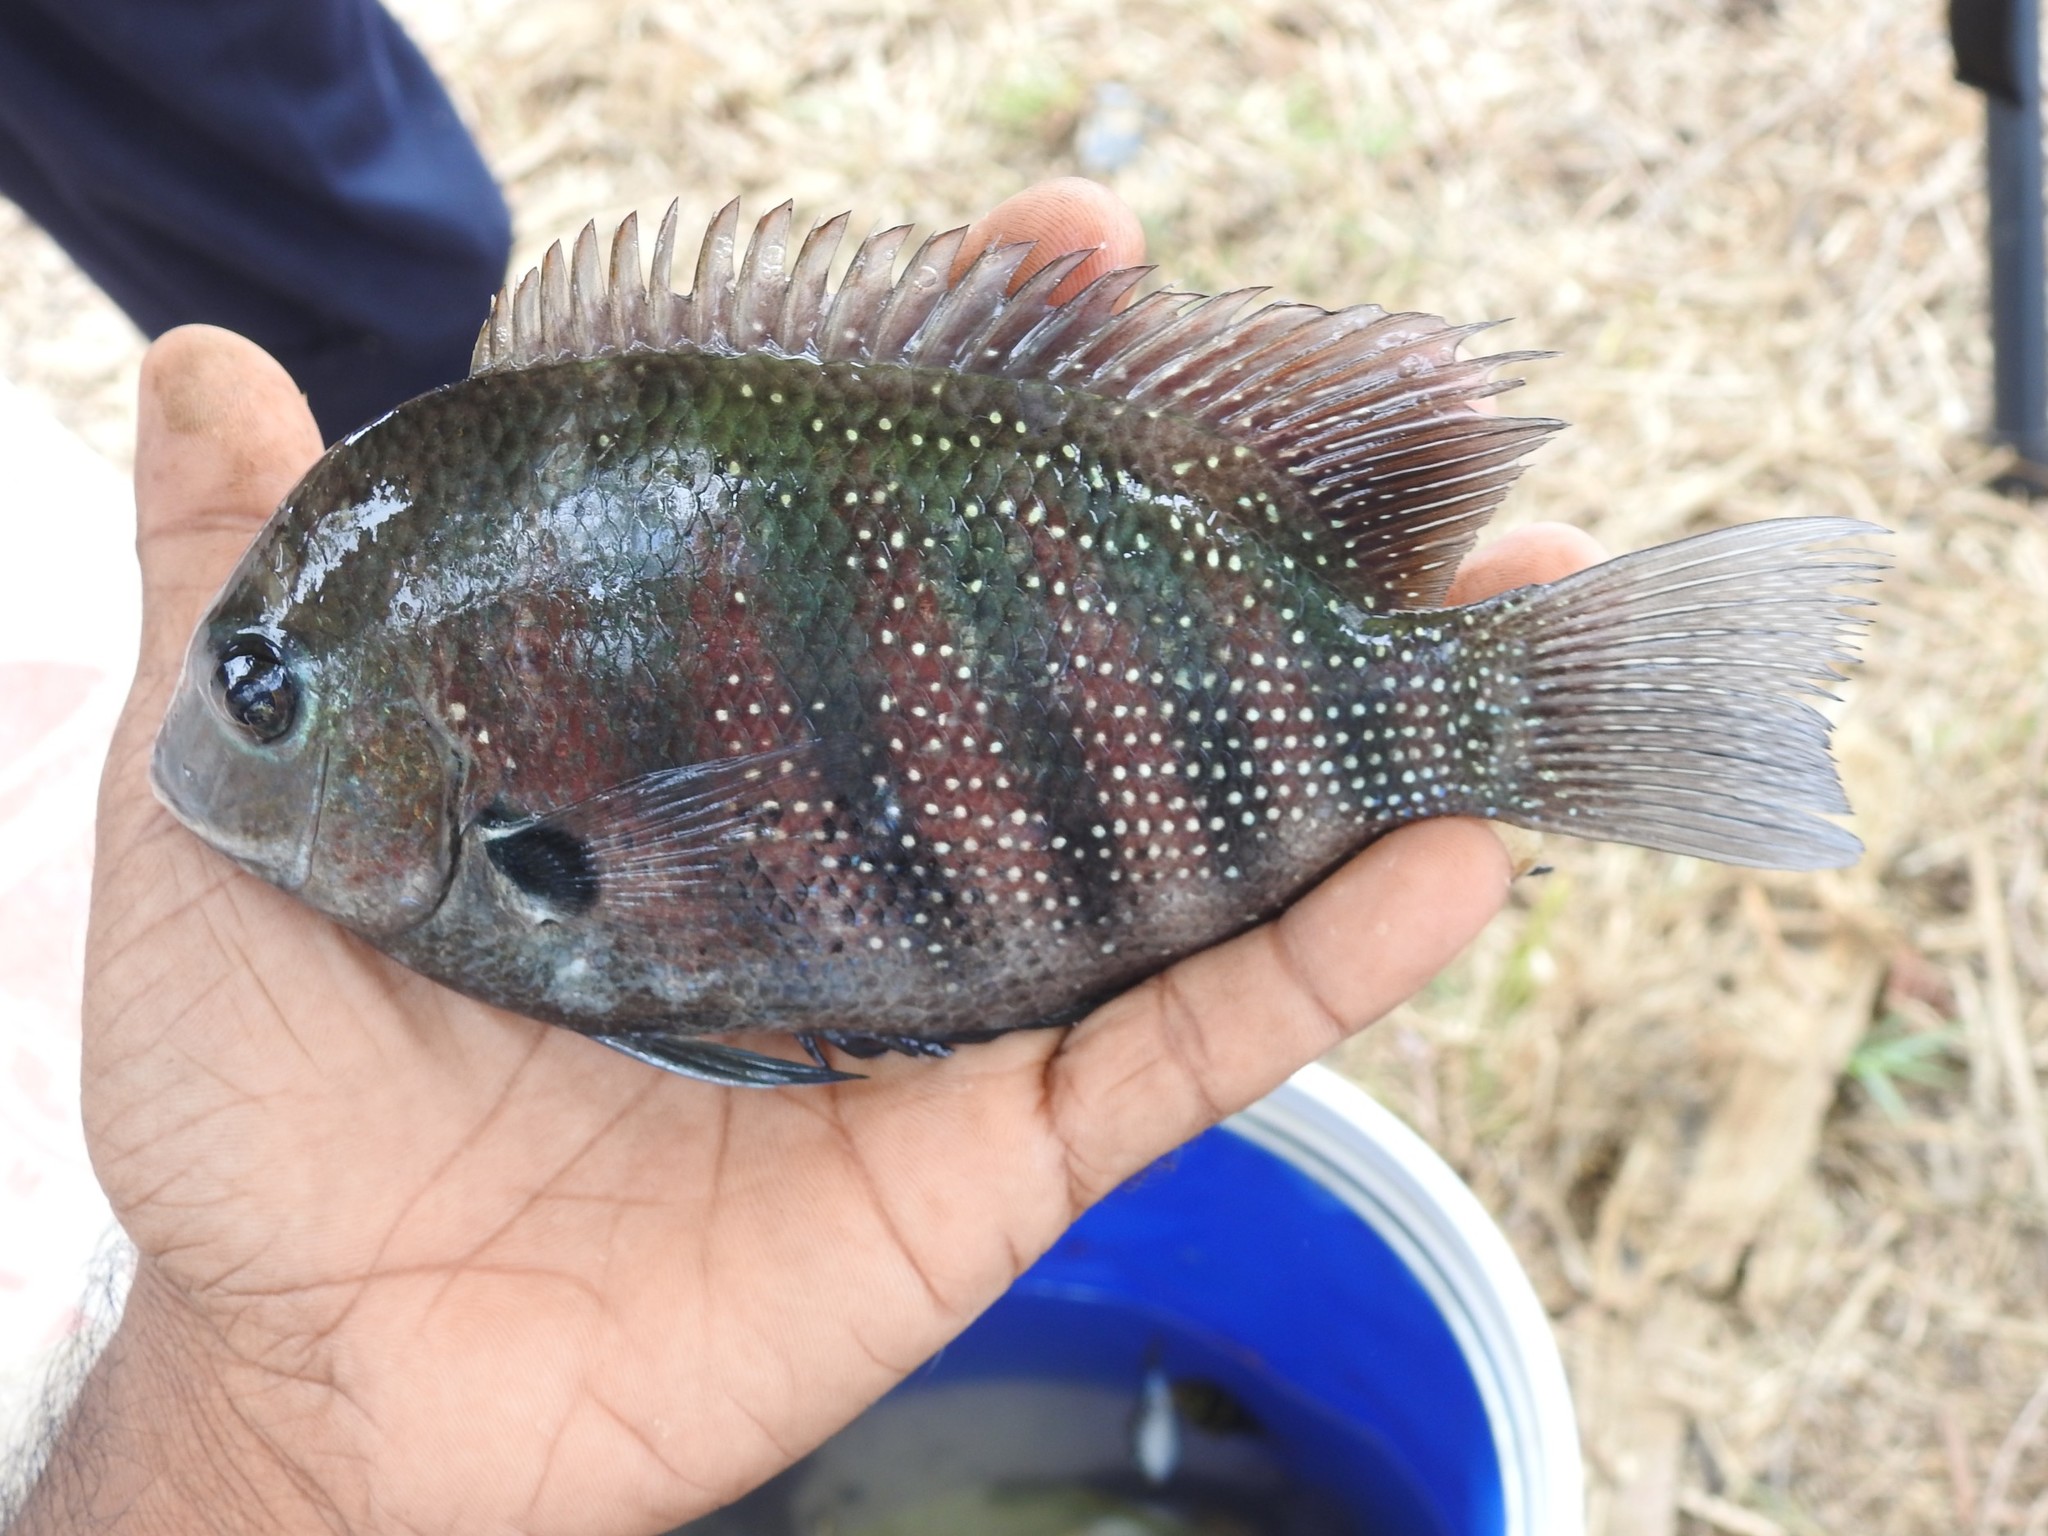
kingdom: Animalia
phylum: Chordata
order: Perciformes
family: Cichlidae
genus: Etroplus
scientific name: Etroplus suratensis
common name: Green chromide
